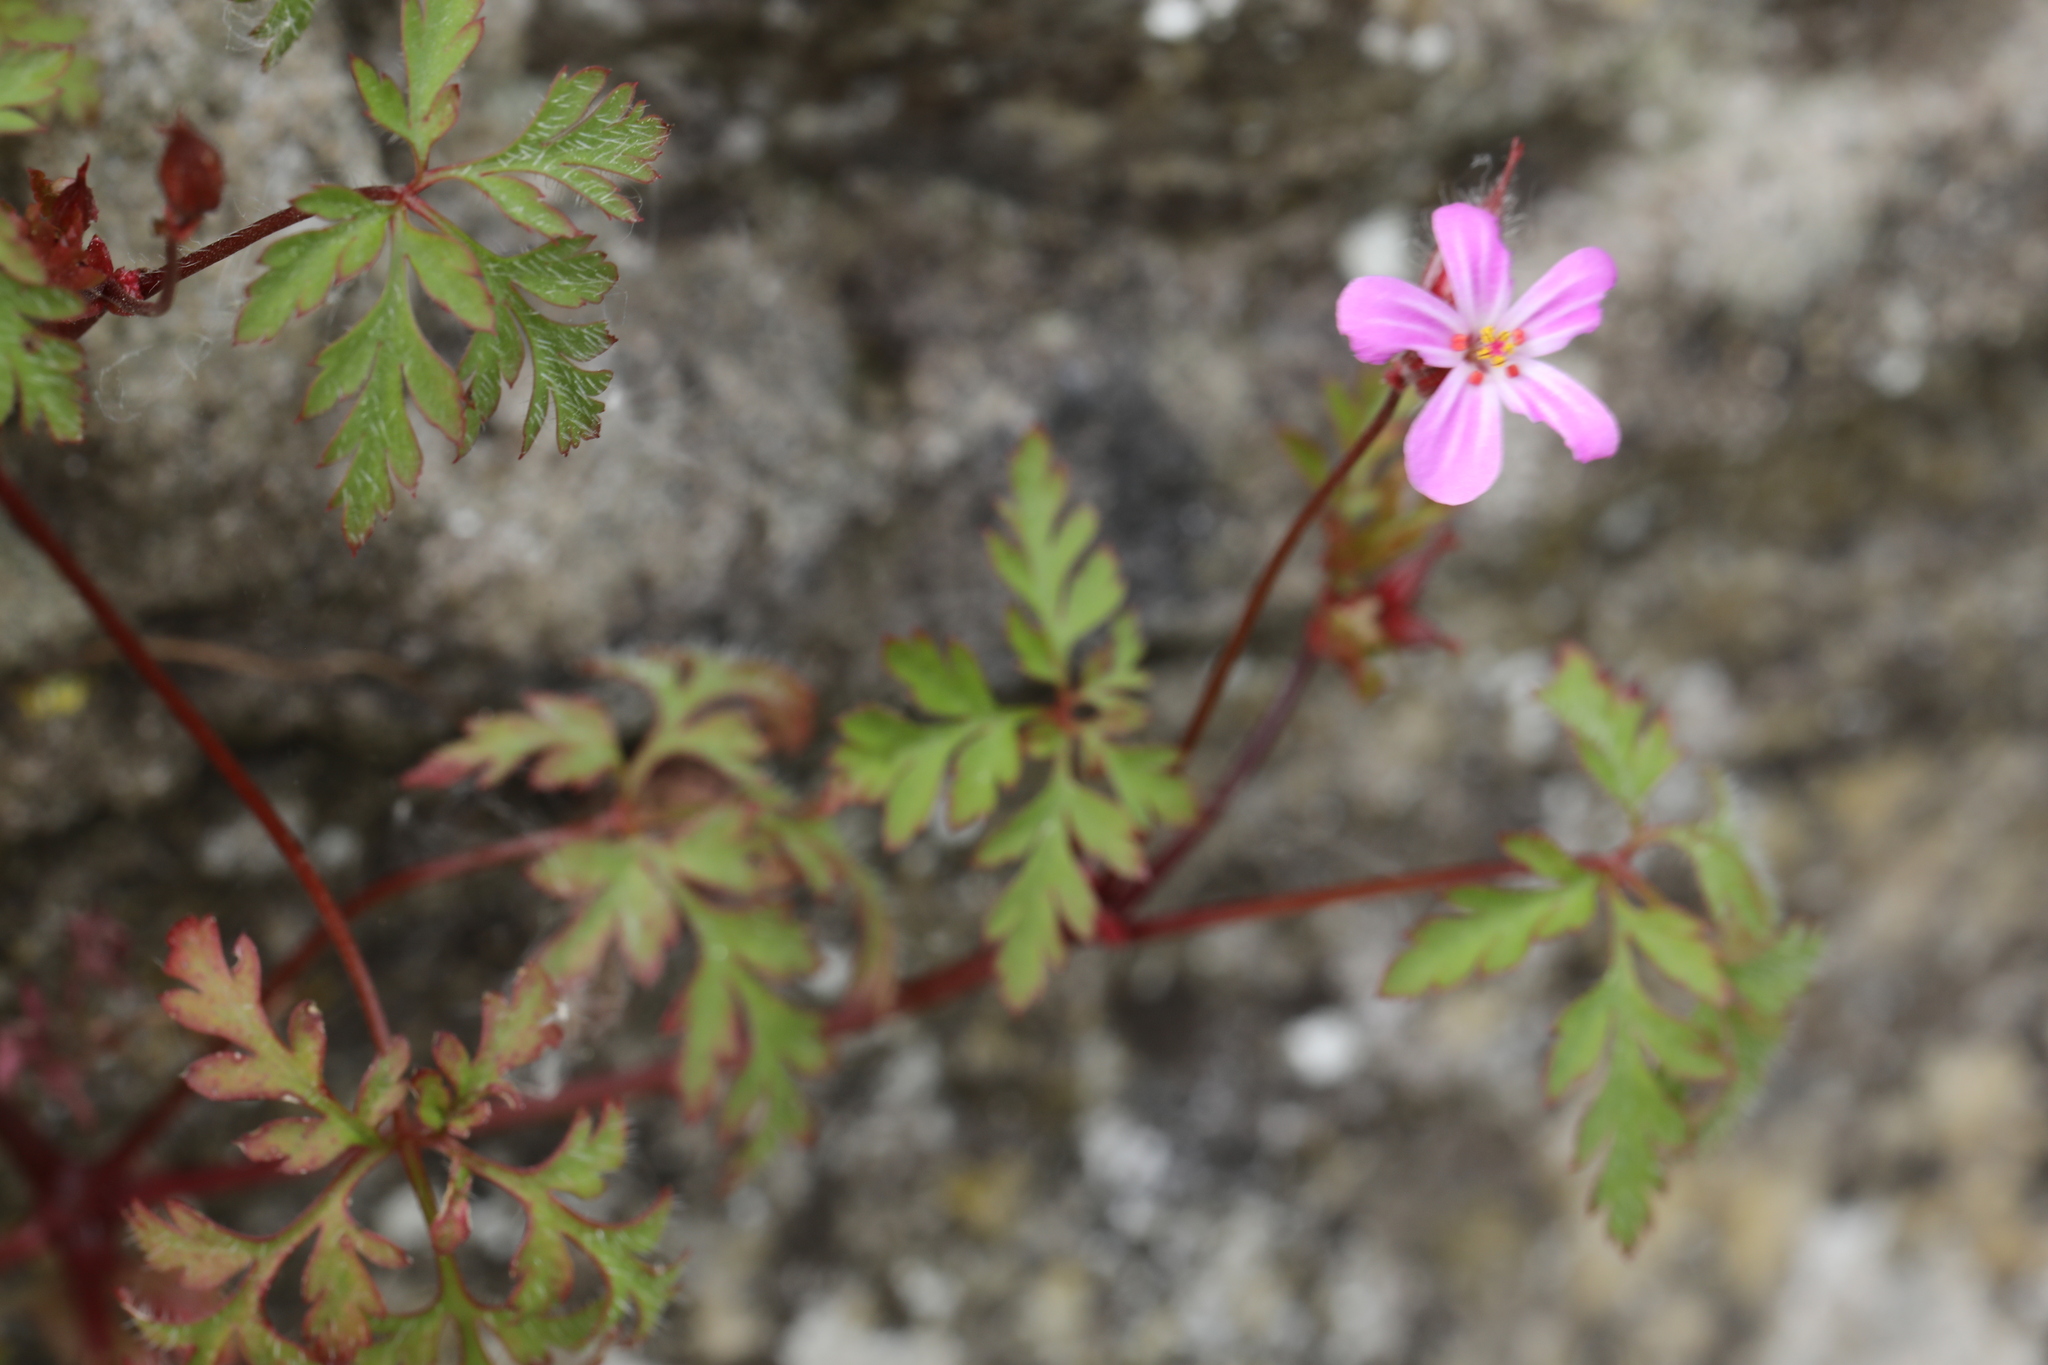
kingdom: Plantae
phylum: Tracheophyta
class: Magnoliopsida
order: Geraniales
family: Geraniaceae
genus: Geranium
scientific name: Geranium robertianum
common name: Herb-robert
